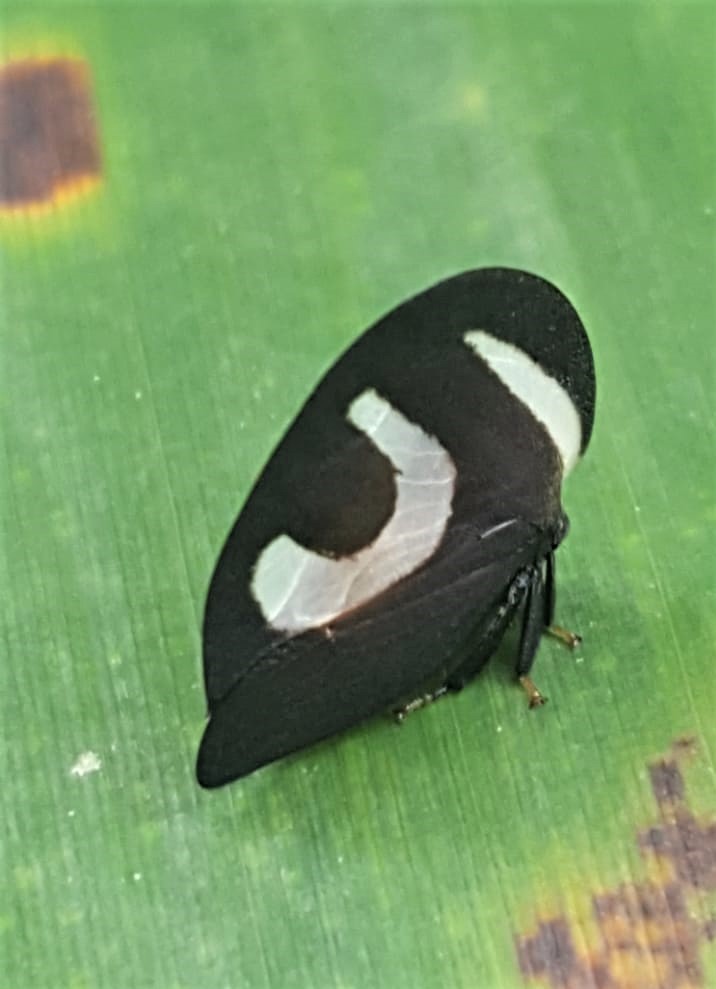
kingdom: Animalia
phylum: Arthropoda
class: Insecta
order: Hemiptera
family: Membracidae
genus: Membracis
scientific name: Membracis foliatafasciata
